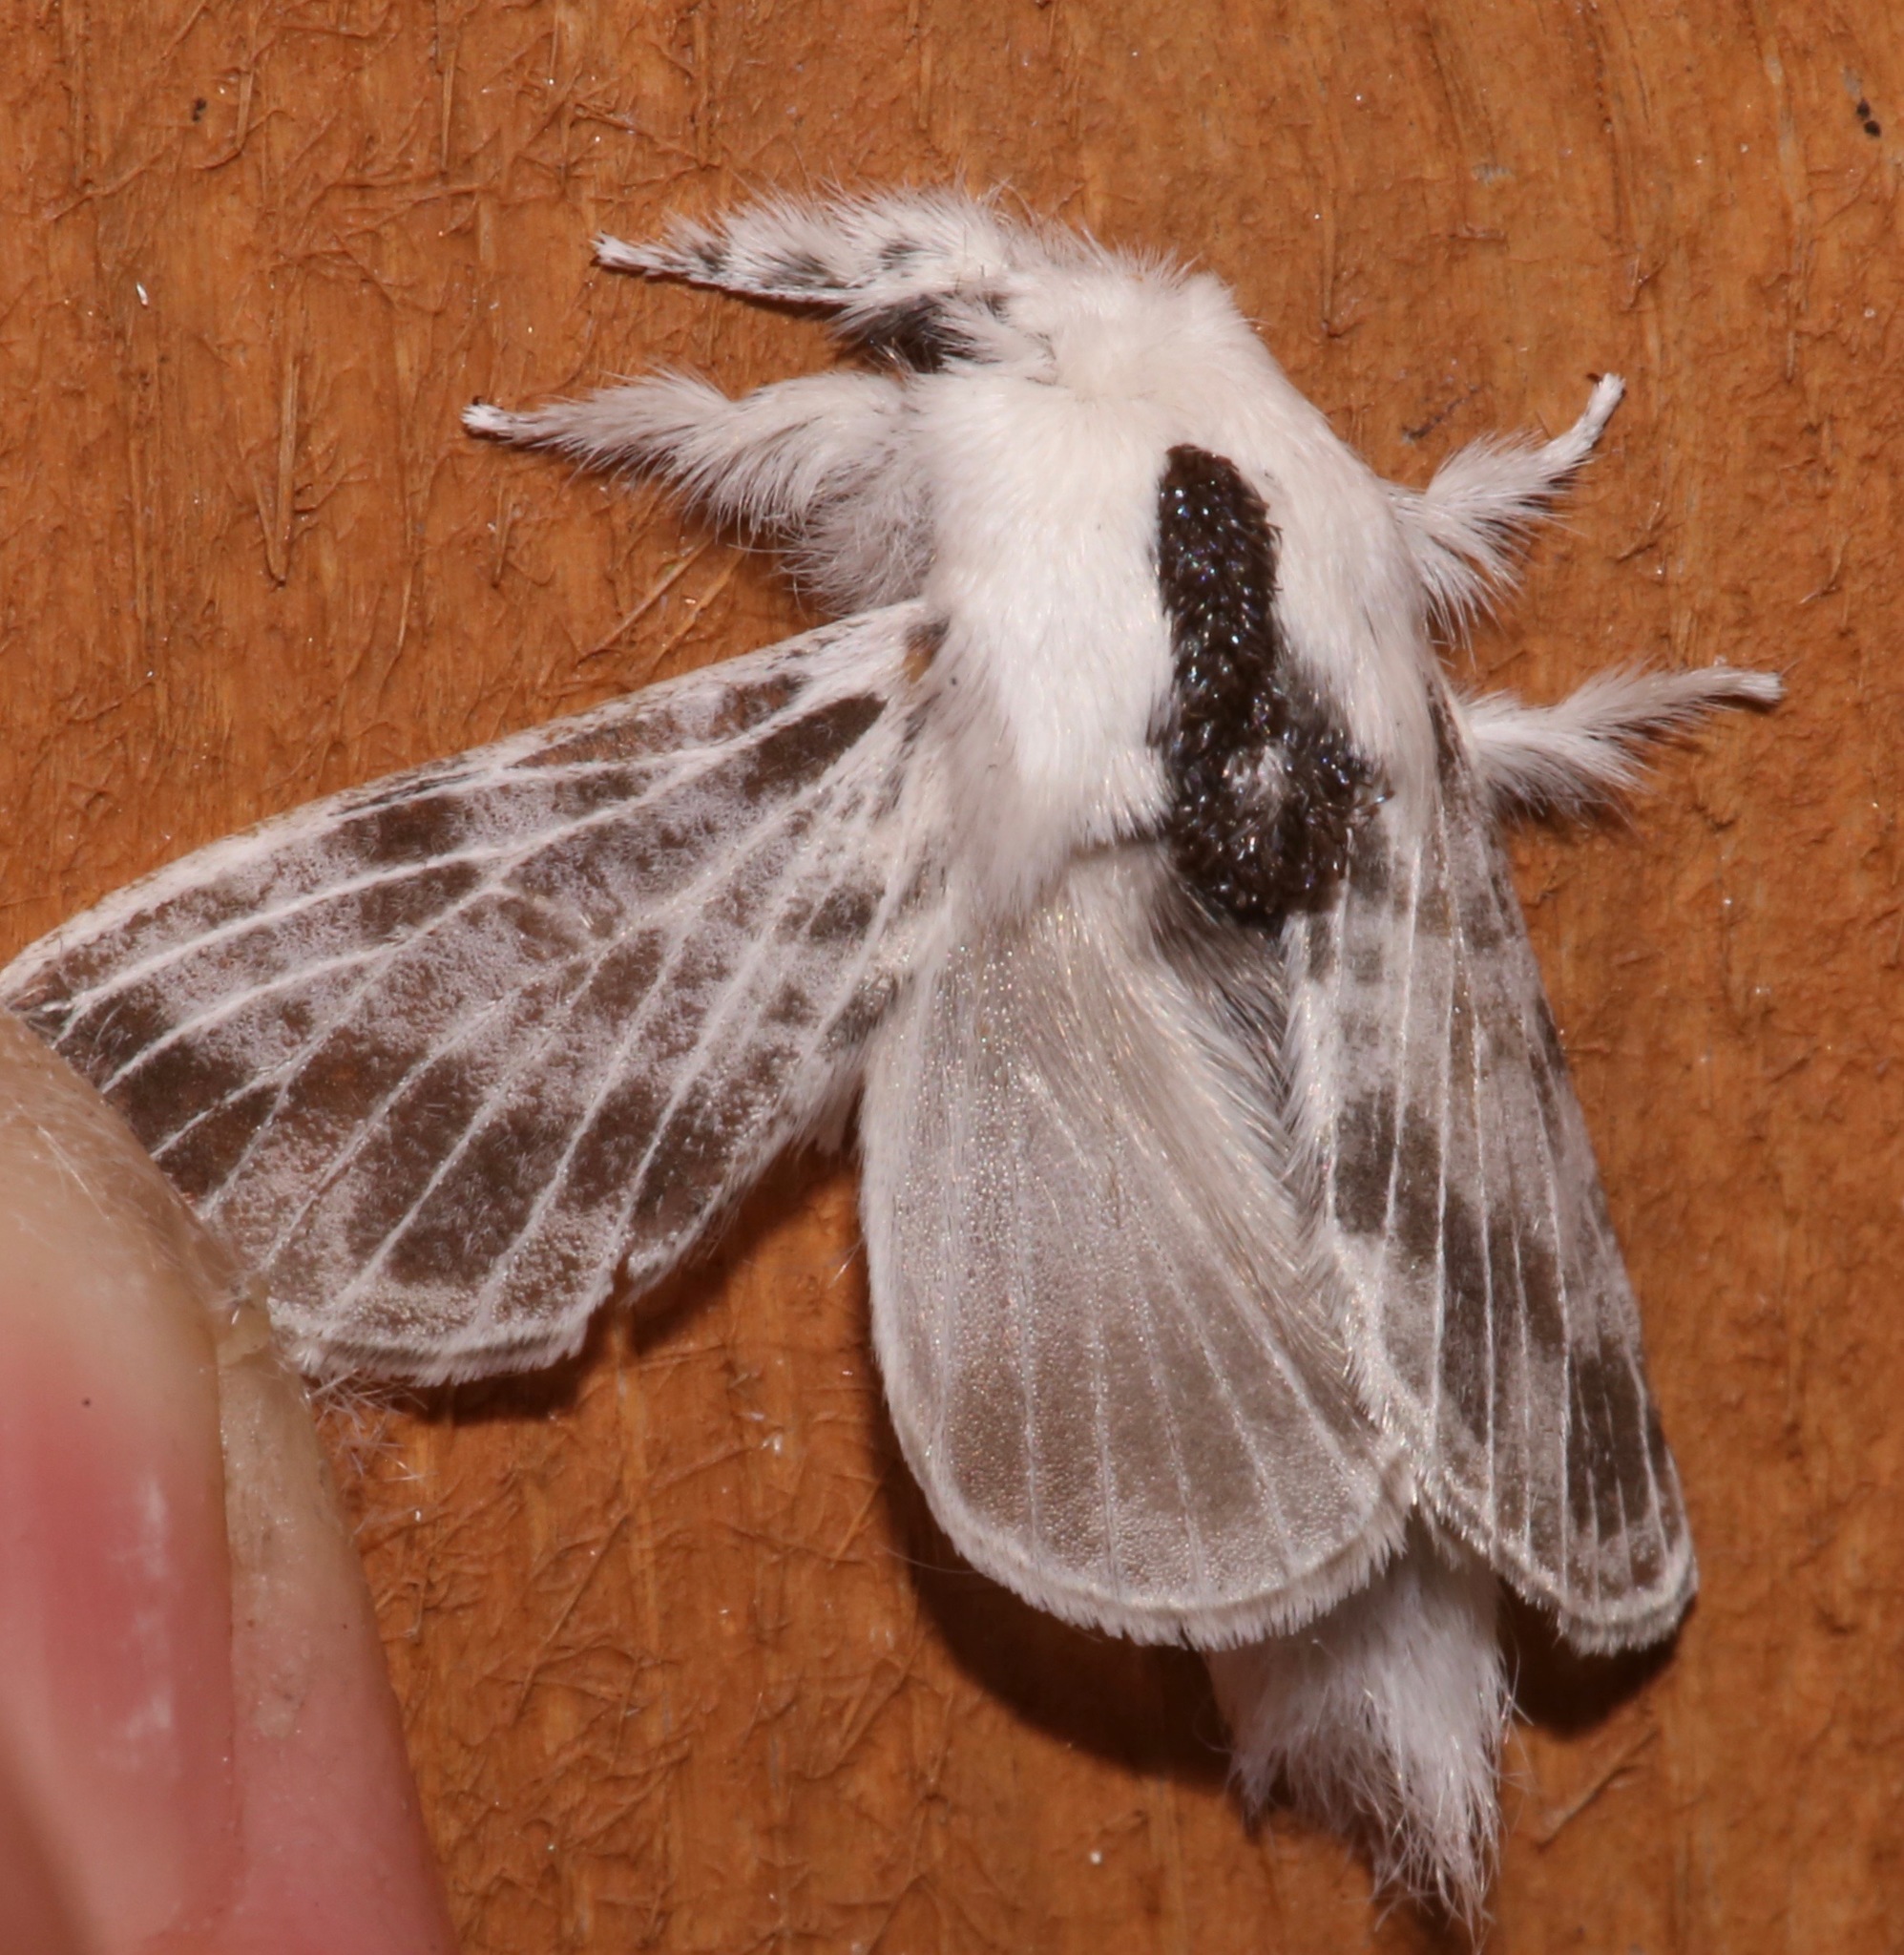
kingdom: Animalia
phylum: Arthropoda
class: Insecta
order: Lepidoptera
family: Lasiocampidae
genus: Tolype
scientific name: Tolype notialis
